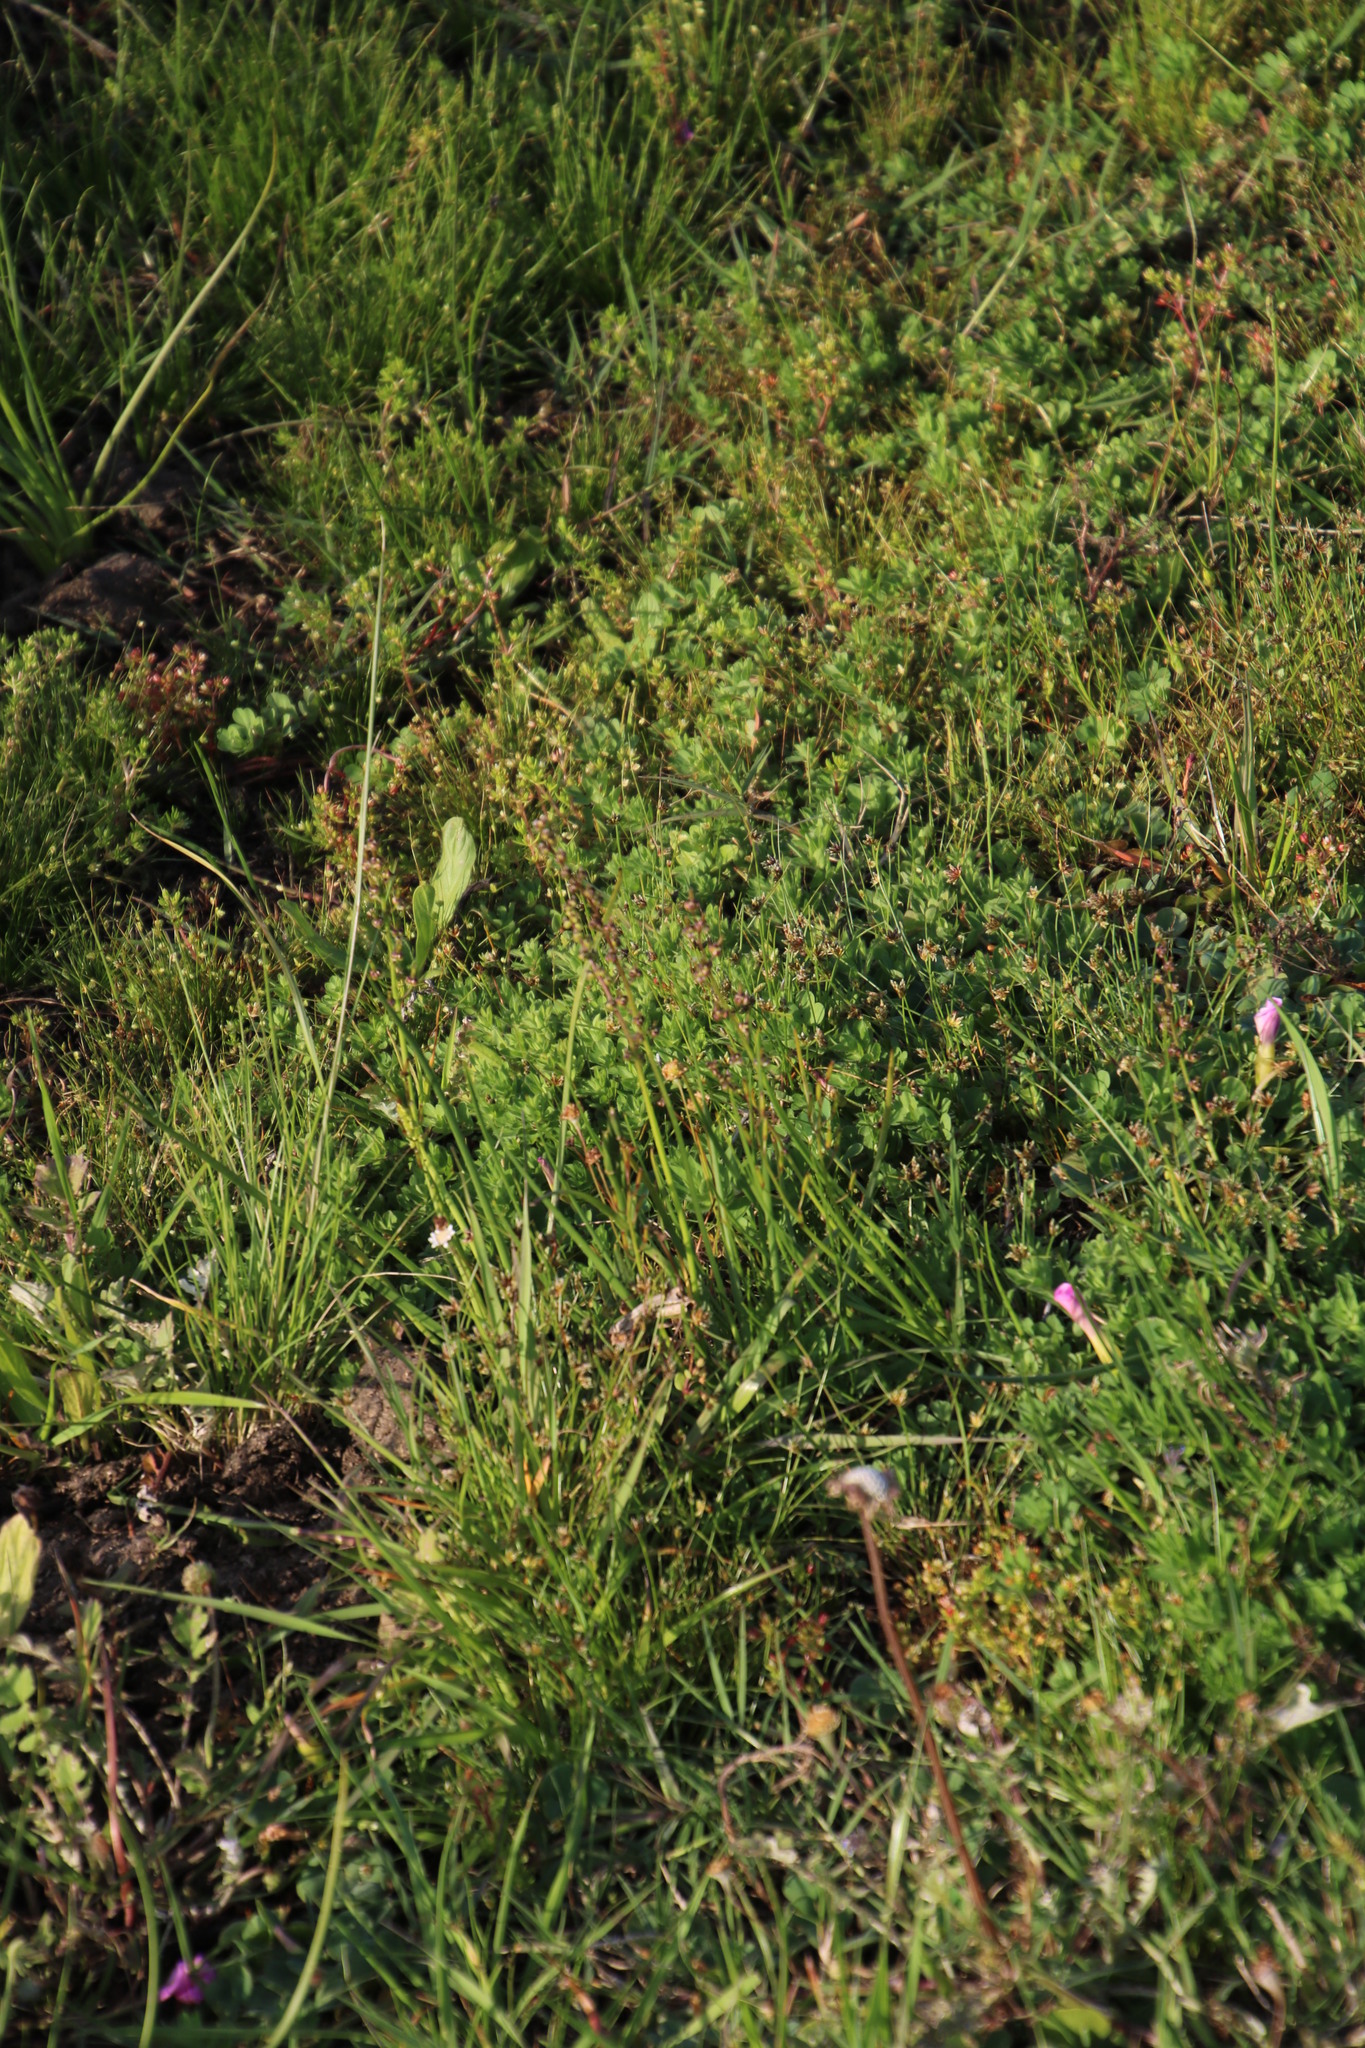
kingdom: Plantae
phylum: Tracheophyta
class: Liliopsida
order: Alismatales
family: Juncaginaceae
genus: Triglochin
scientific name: Triglochin bulbosa
